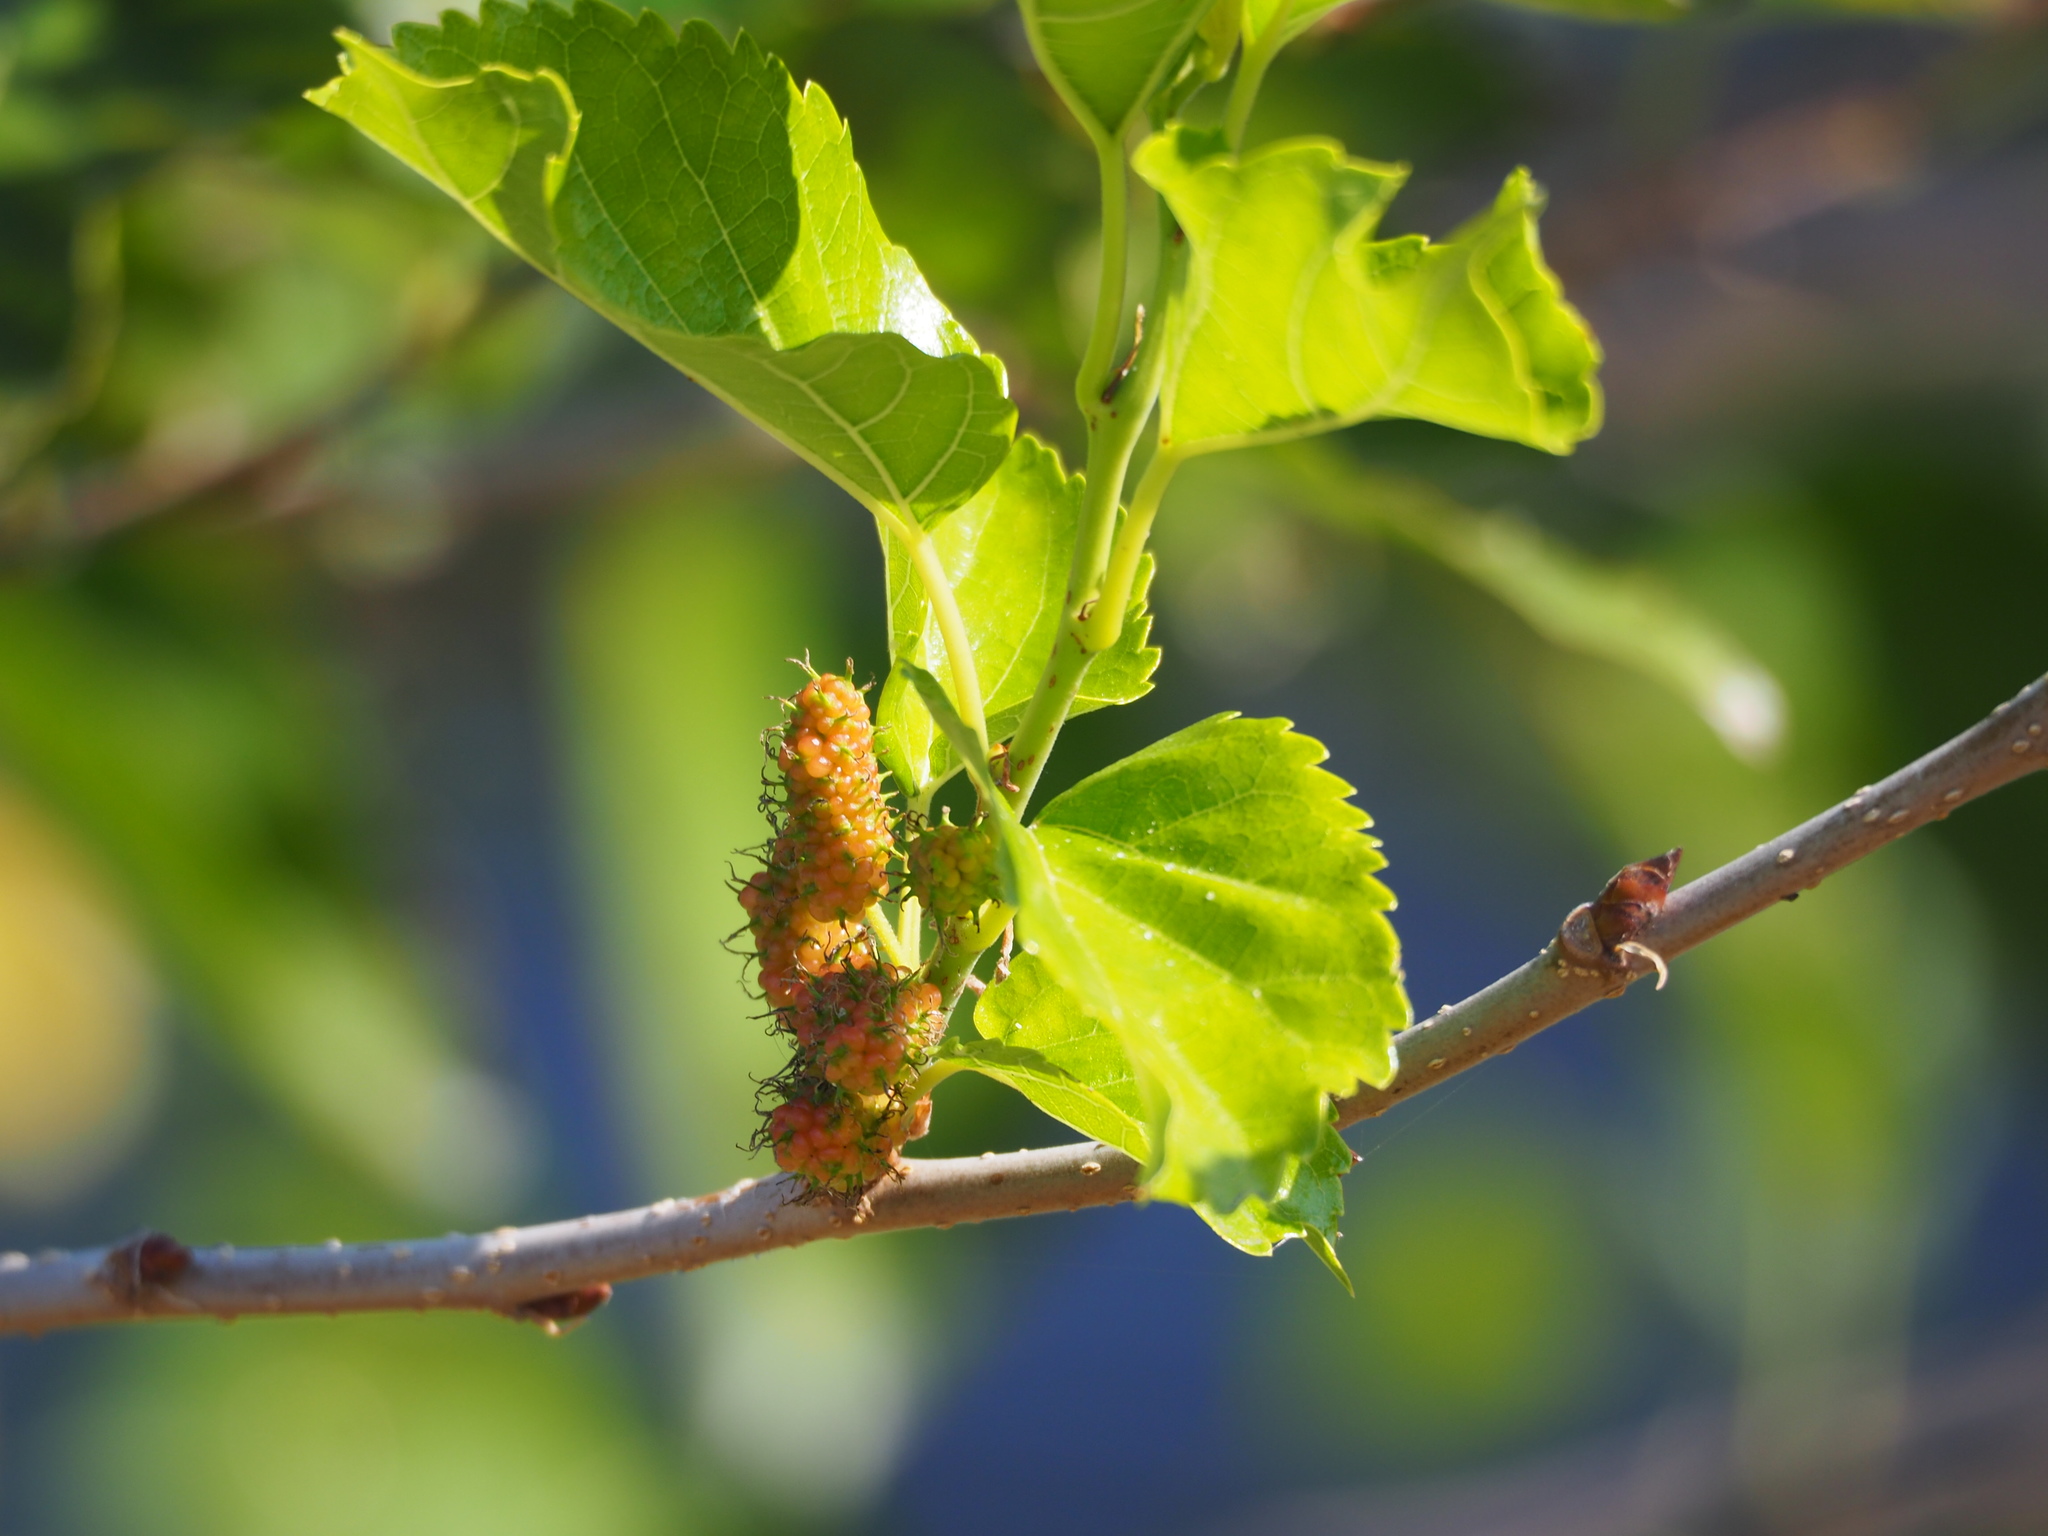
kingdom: Plantae
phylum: Tracheophyta
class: Magnoliopsida
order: Rosales
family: Moraceae
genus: Morus
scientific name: Morus indica
